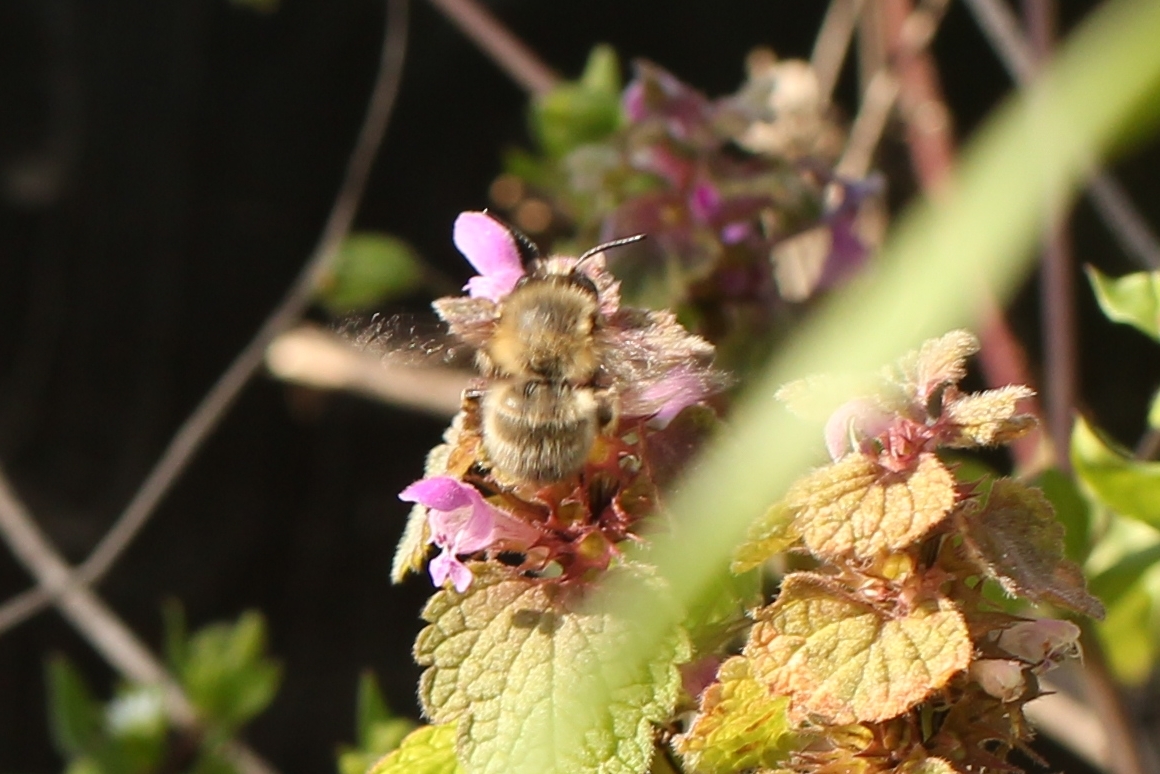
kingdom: Animalia
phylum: Arthropoda
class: Insecta
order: Hymenoptera
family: Apidae
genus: Anthophora
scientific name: Anthophora plumipes
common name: Hairy-footed flower bee
